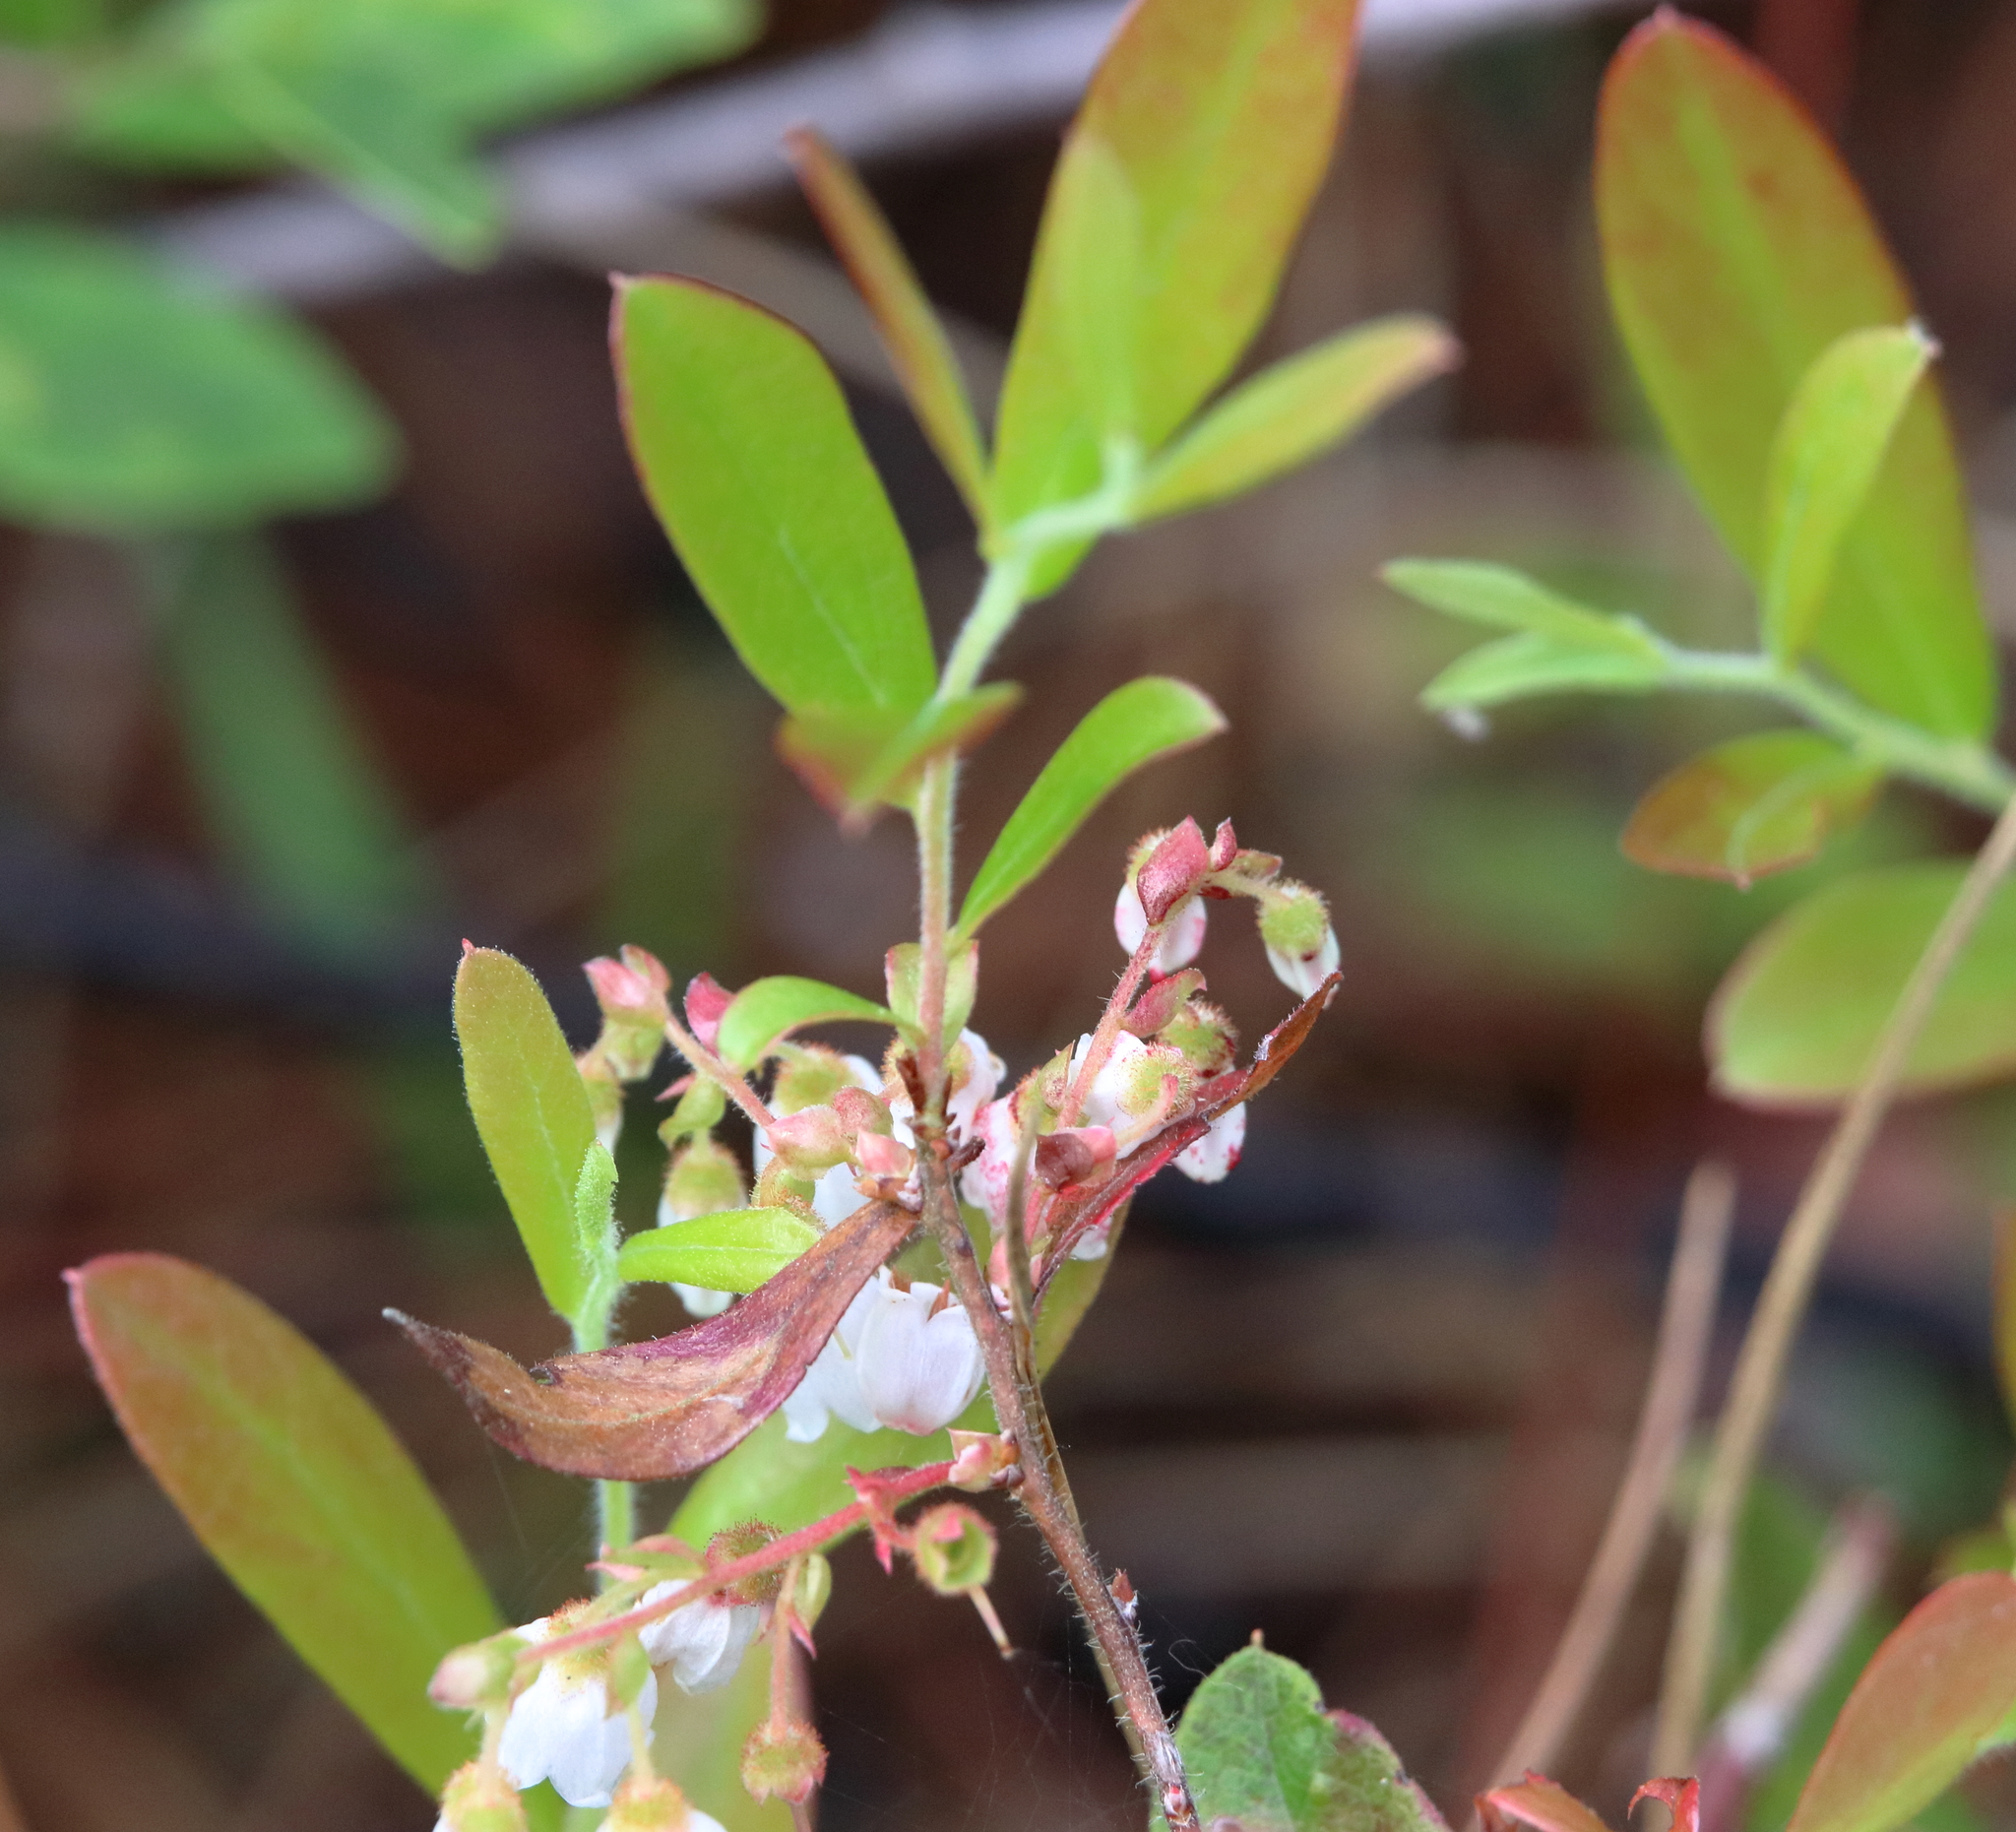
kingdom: Plantae
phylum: Tracheophyta
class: Magnoliopsida
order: Ericales
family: Ericaceae
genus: Gaylussacia
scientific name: Gaylussacia mosieri
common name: Hirsute huckleberry
